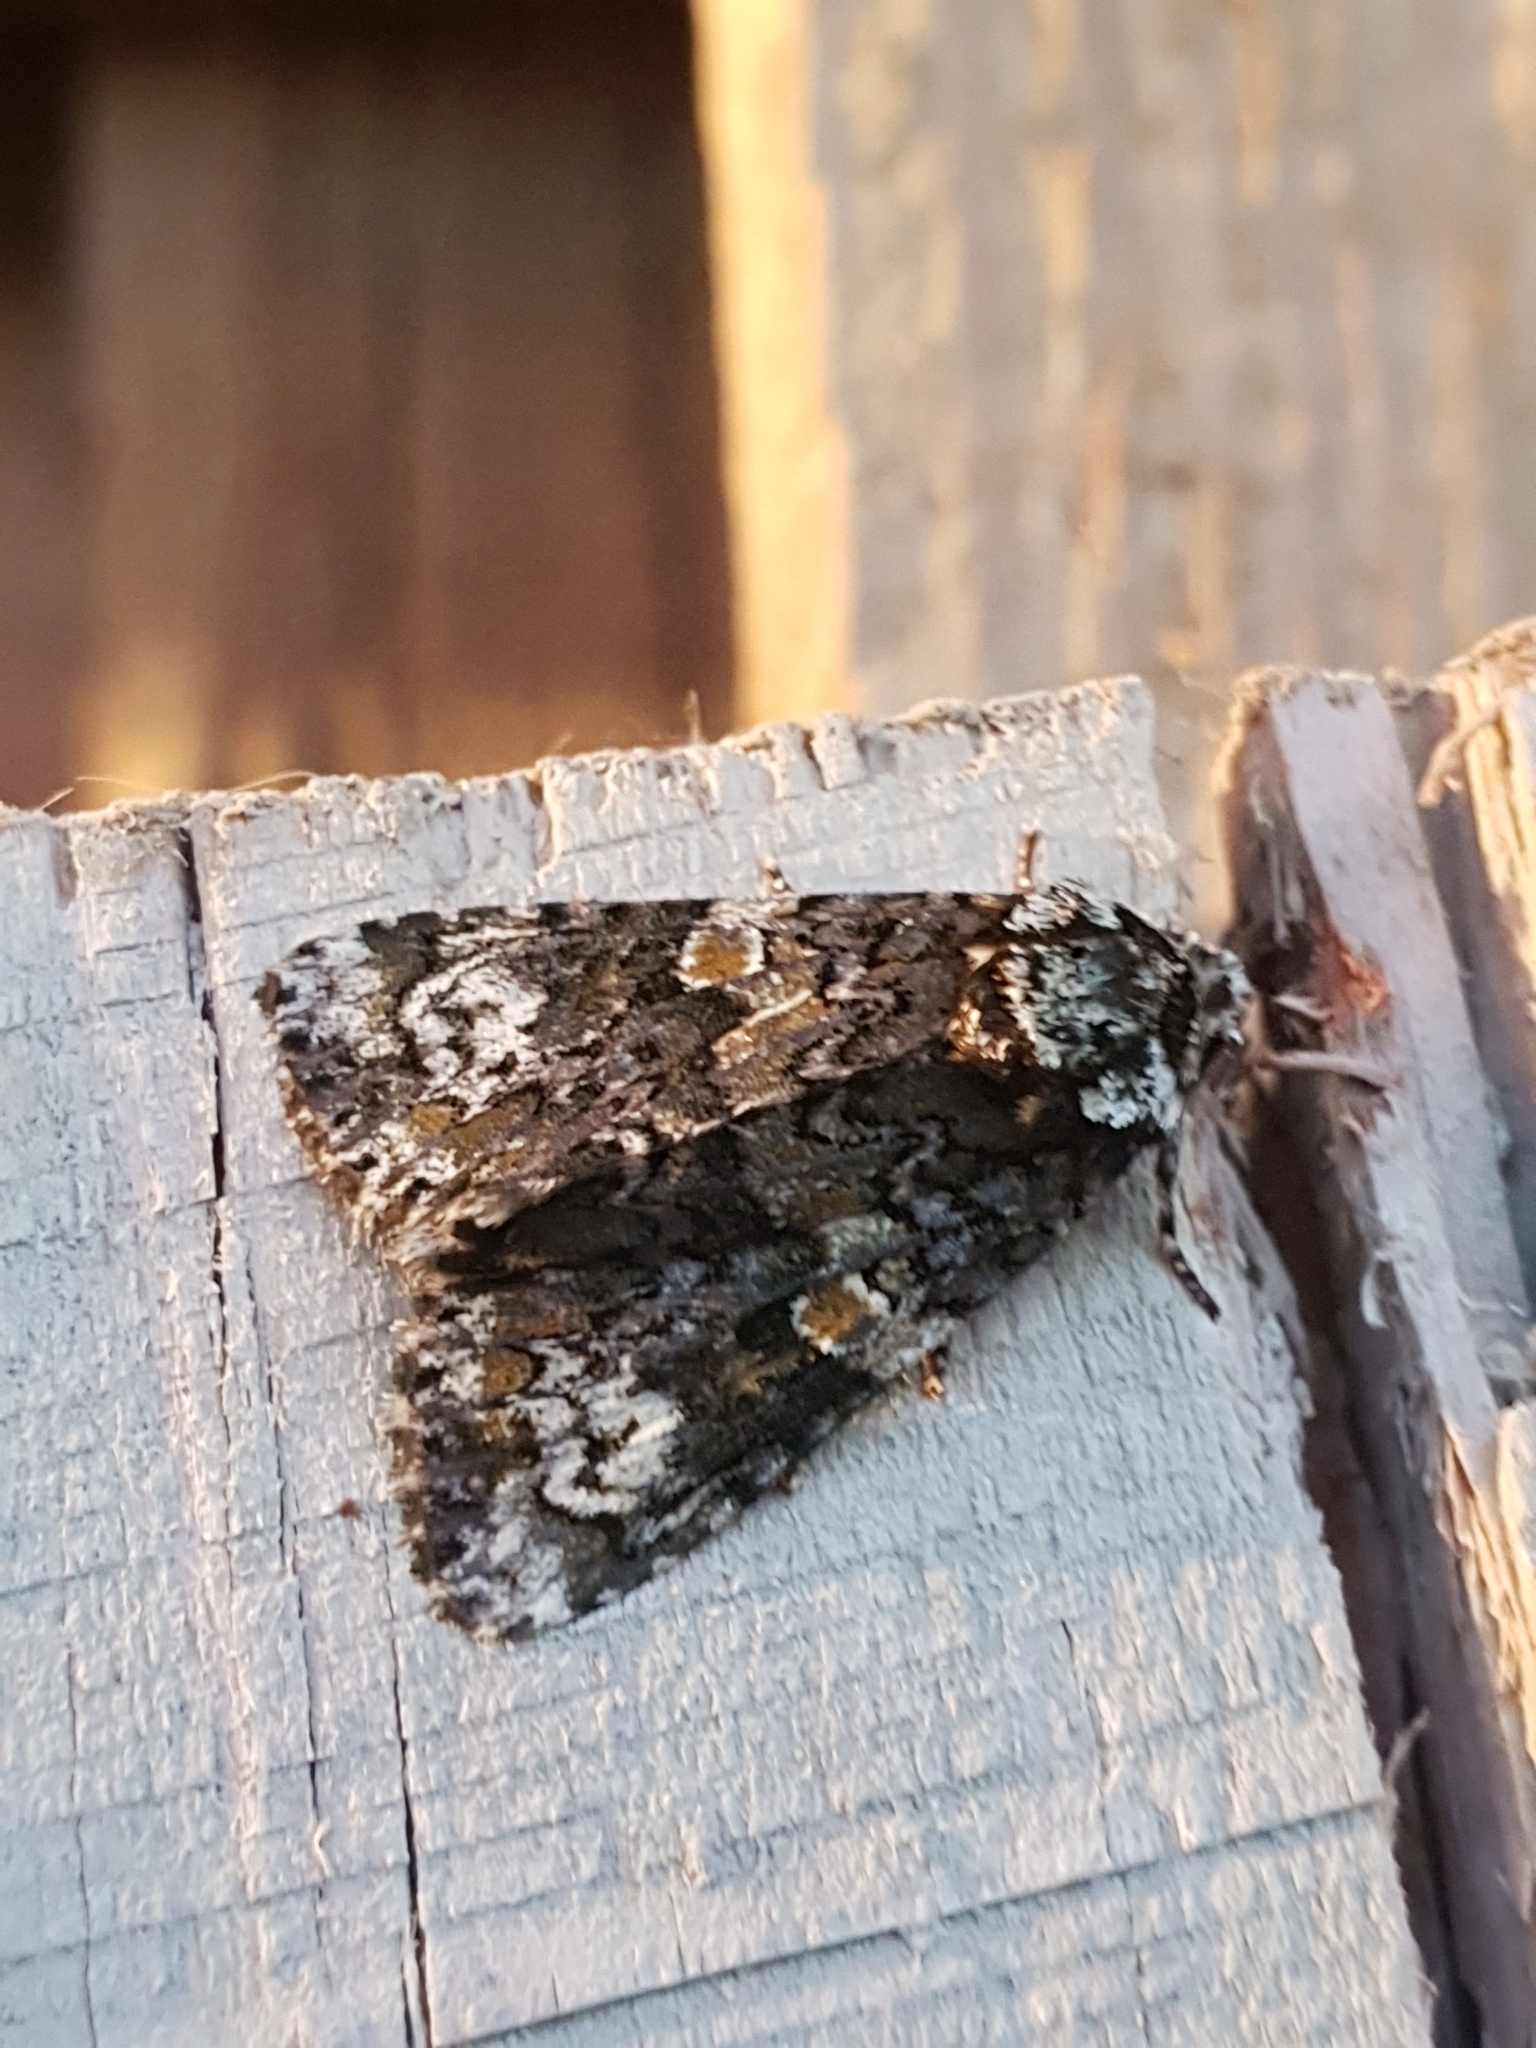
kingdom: Animalia
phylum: Arthropoda
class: Insecta
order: Lepidoptera
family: Noctuidae
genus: Craniophora
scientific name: Craniophora ligustri
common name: Coronet
